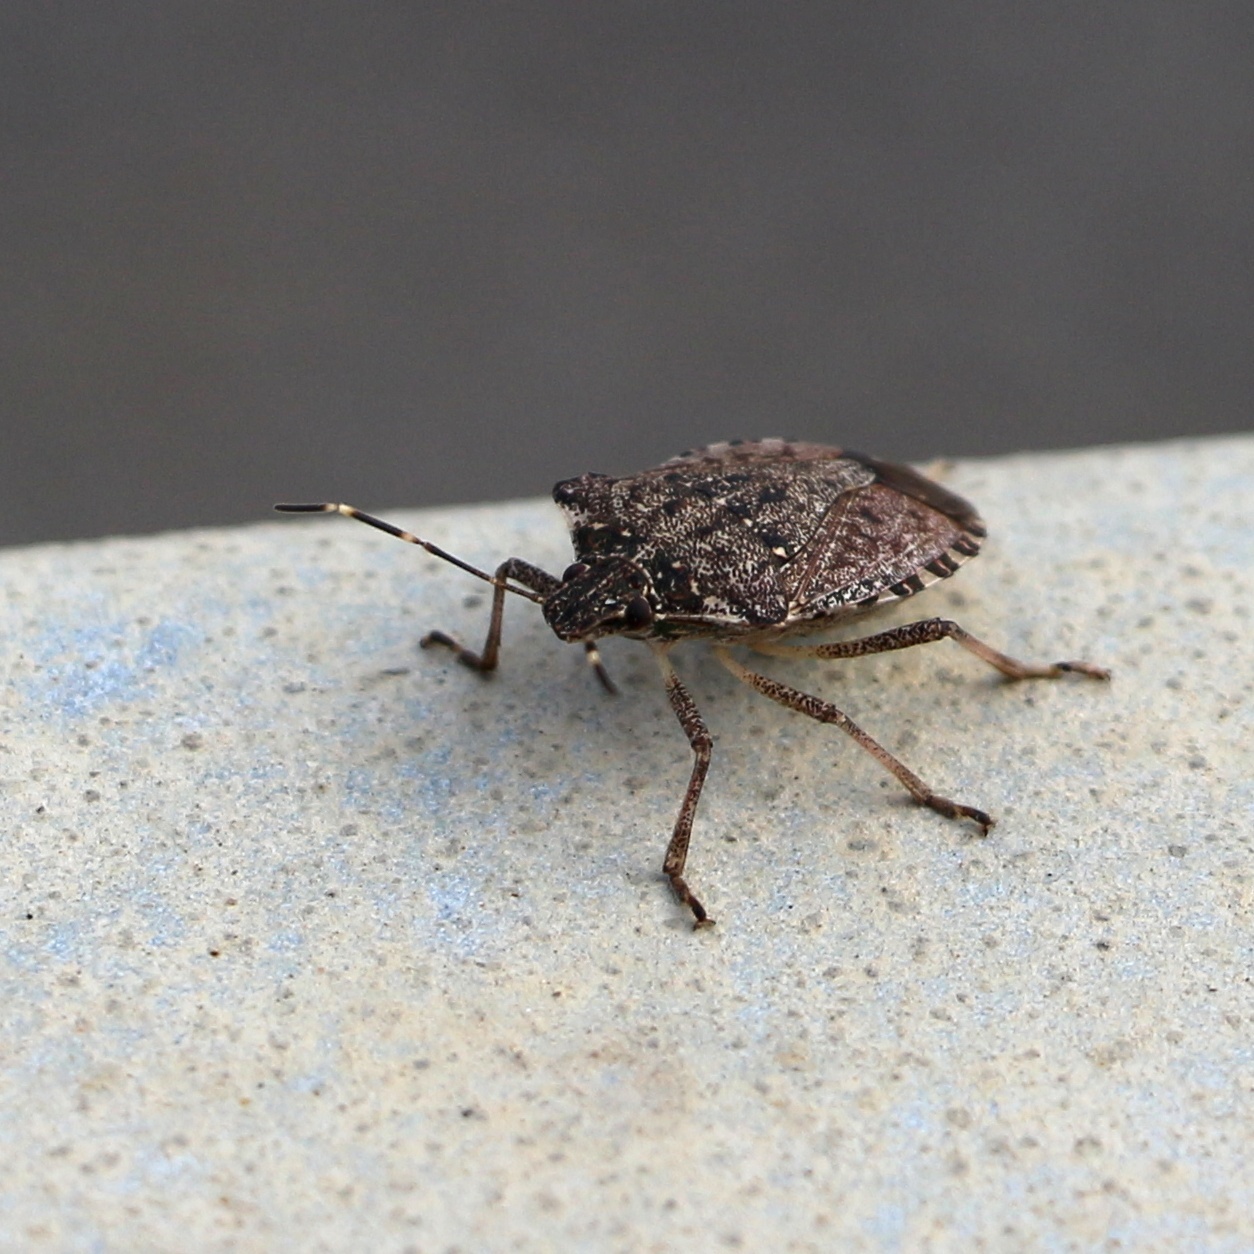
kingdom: Animalia
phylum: Arthropoda
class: Insecta
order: Hemiptera
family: Pentatomidae
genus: Halyomorpha
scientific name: Halyomorpha halys
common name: Brown marmorated stink bug
